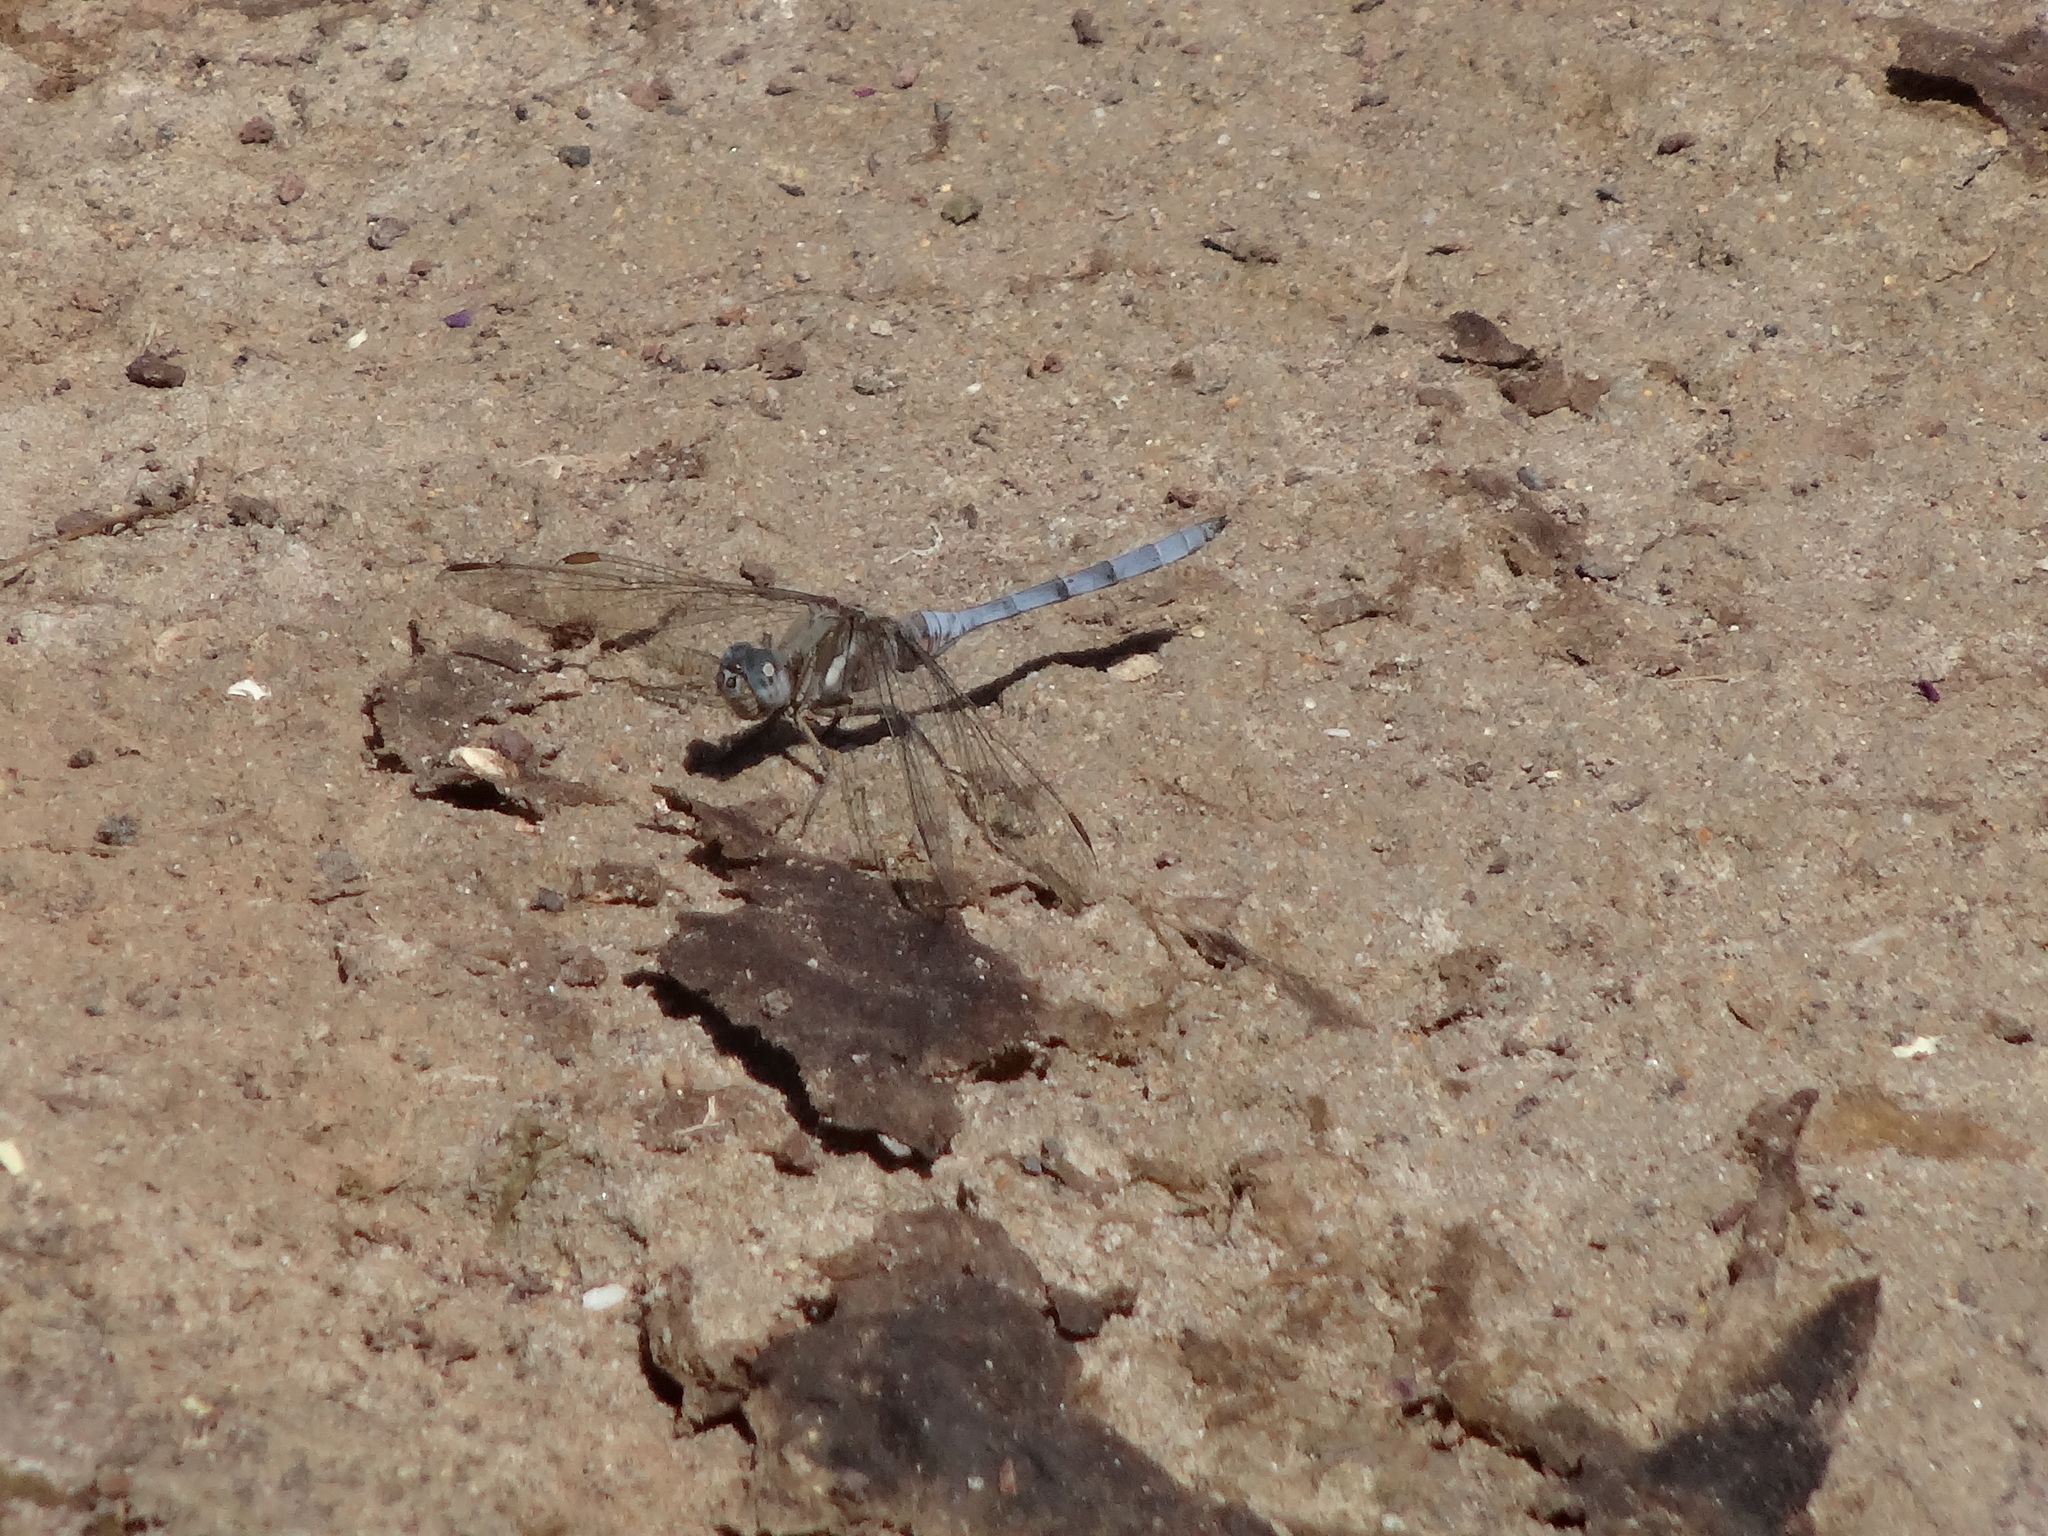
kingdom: Animalia
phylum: Arthropoda
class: Insecta
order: Odonata
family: Libellulidae
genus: Orthetrum
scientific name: Orthetrum chrysostigma
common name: Epaulet skimmer
